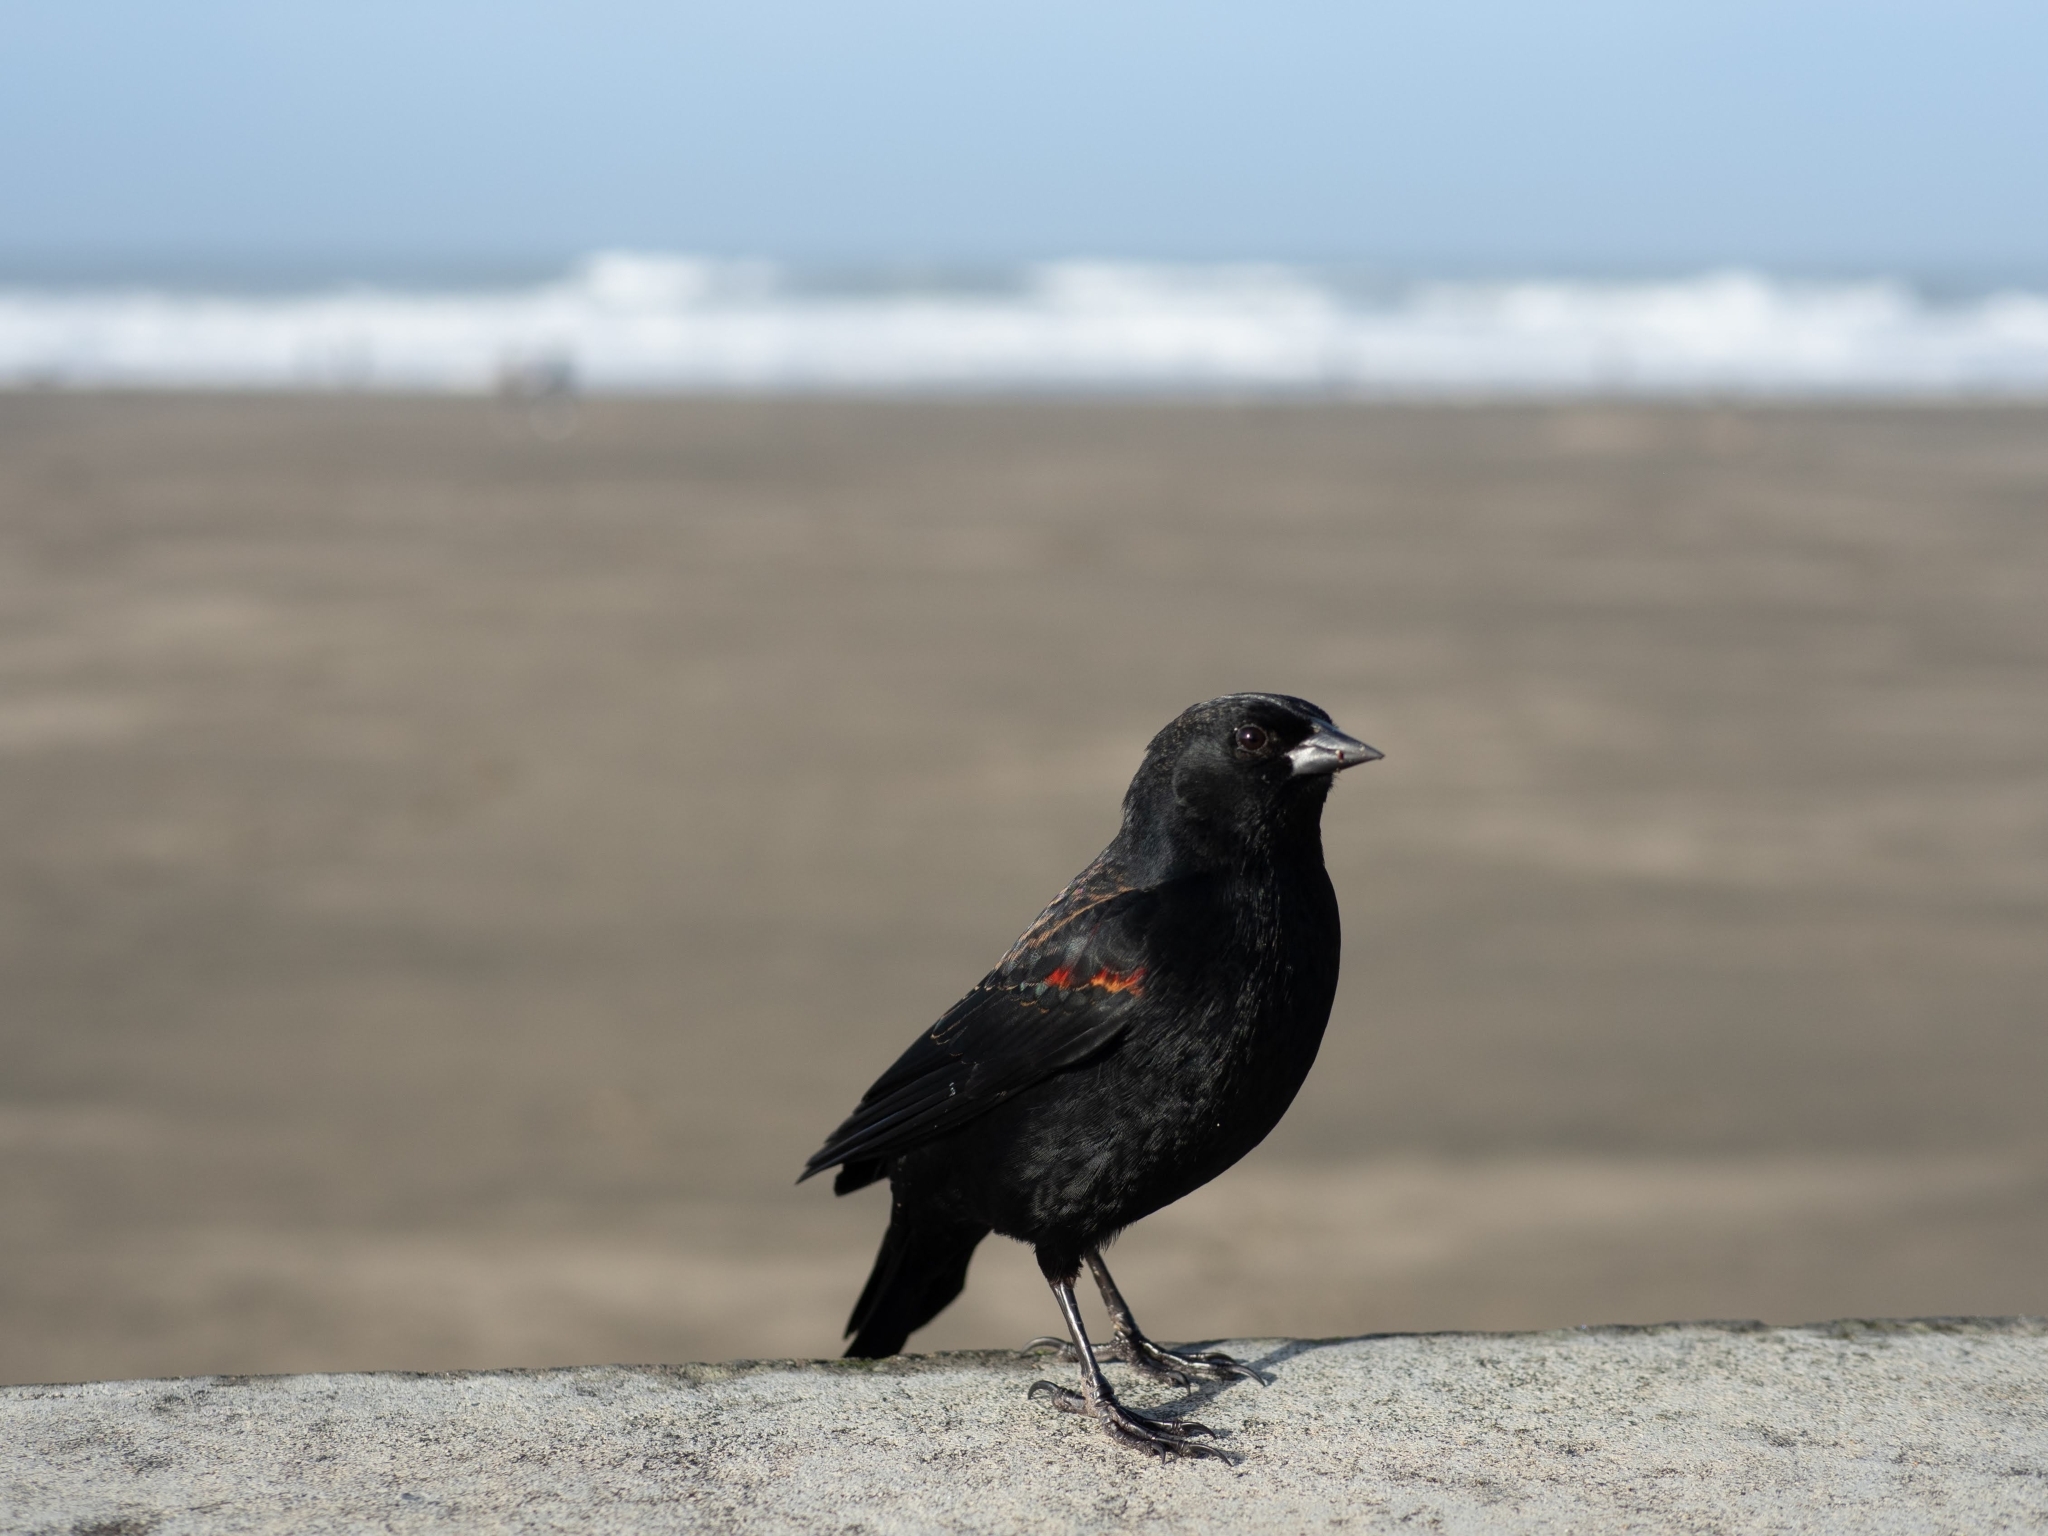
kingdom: Animalia
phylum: Chordata
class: Aves
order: Passeriformes
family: Icteridae
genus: Agelaius
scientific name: Agelaius phoeniceus
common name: Red-winged blackbird
